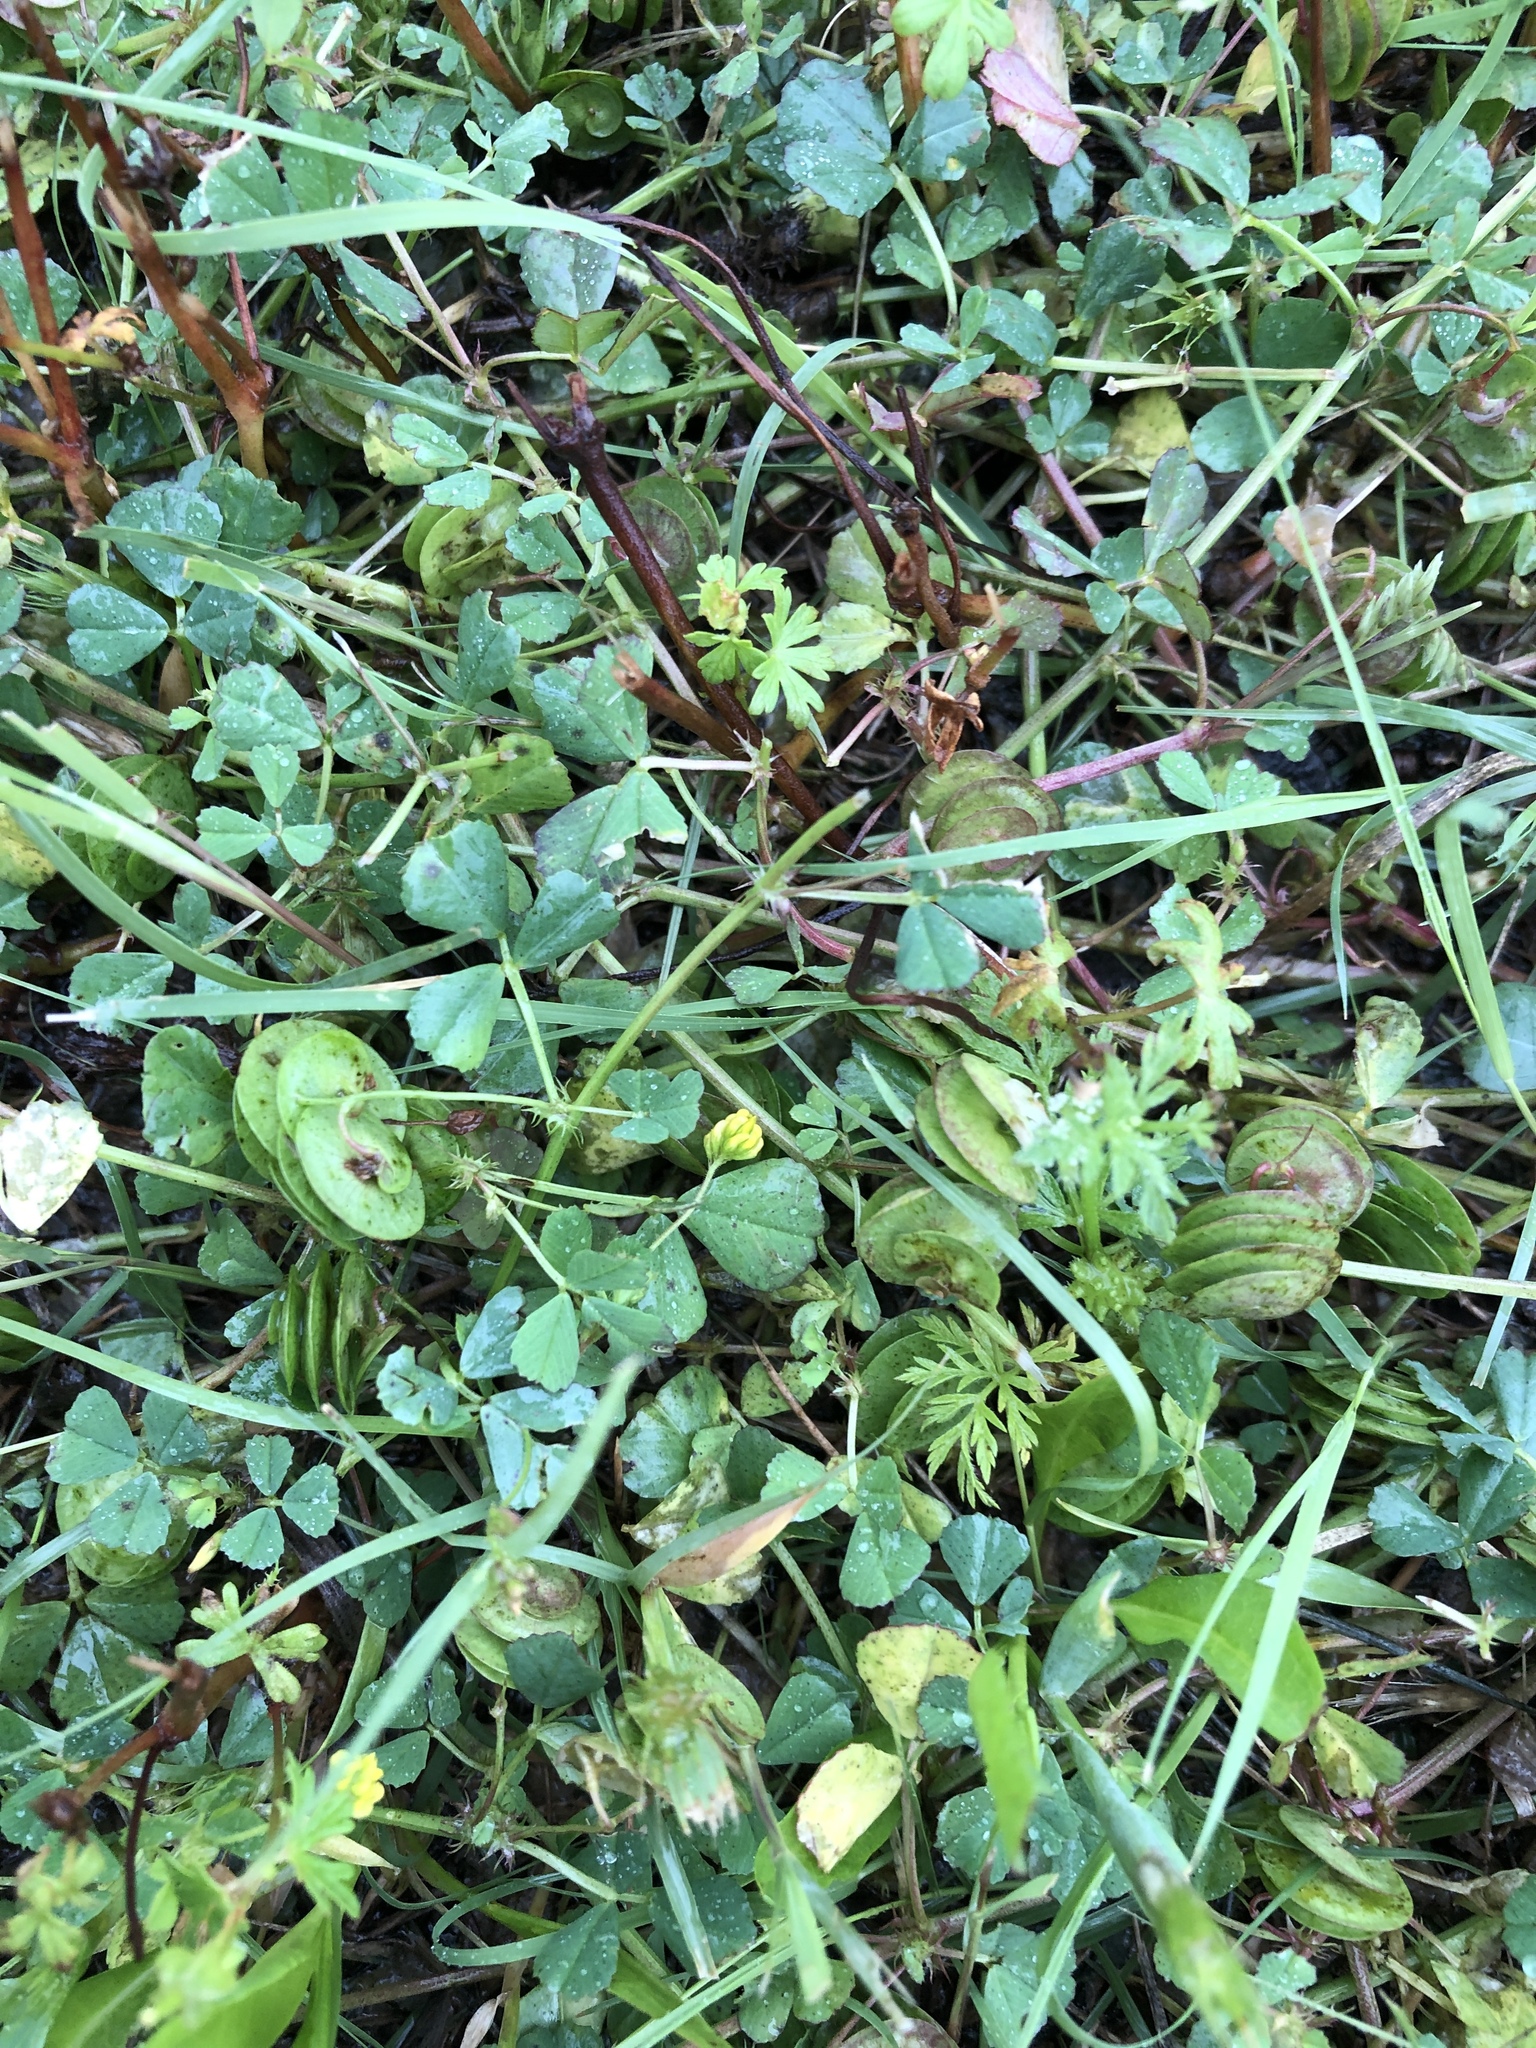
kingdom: Plantae
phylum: Tracheophyta
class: Magnoliopsida
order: Fabales
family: Fabaceae
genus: Medicago
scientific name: Medicago orbicularis
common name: Button medick
